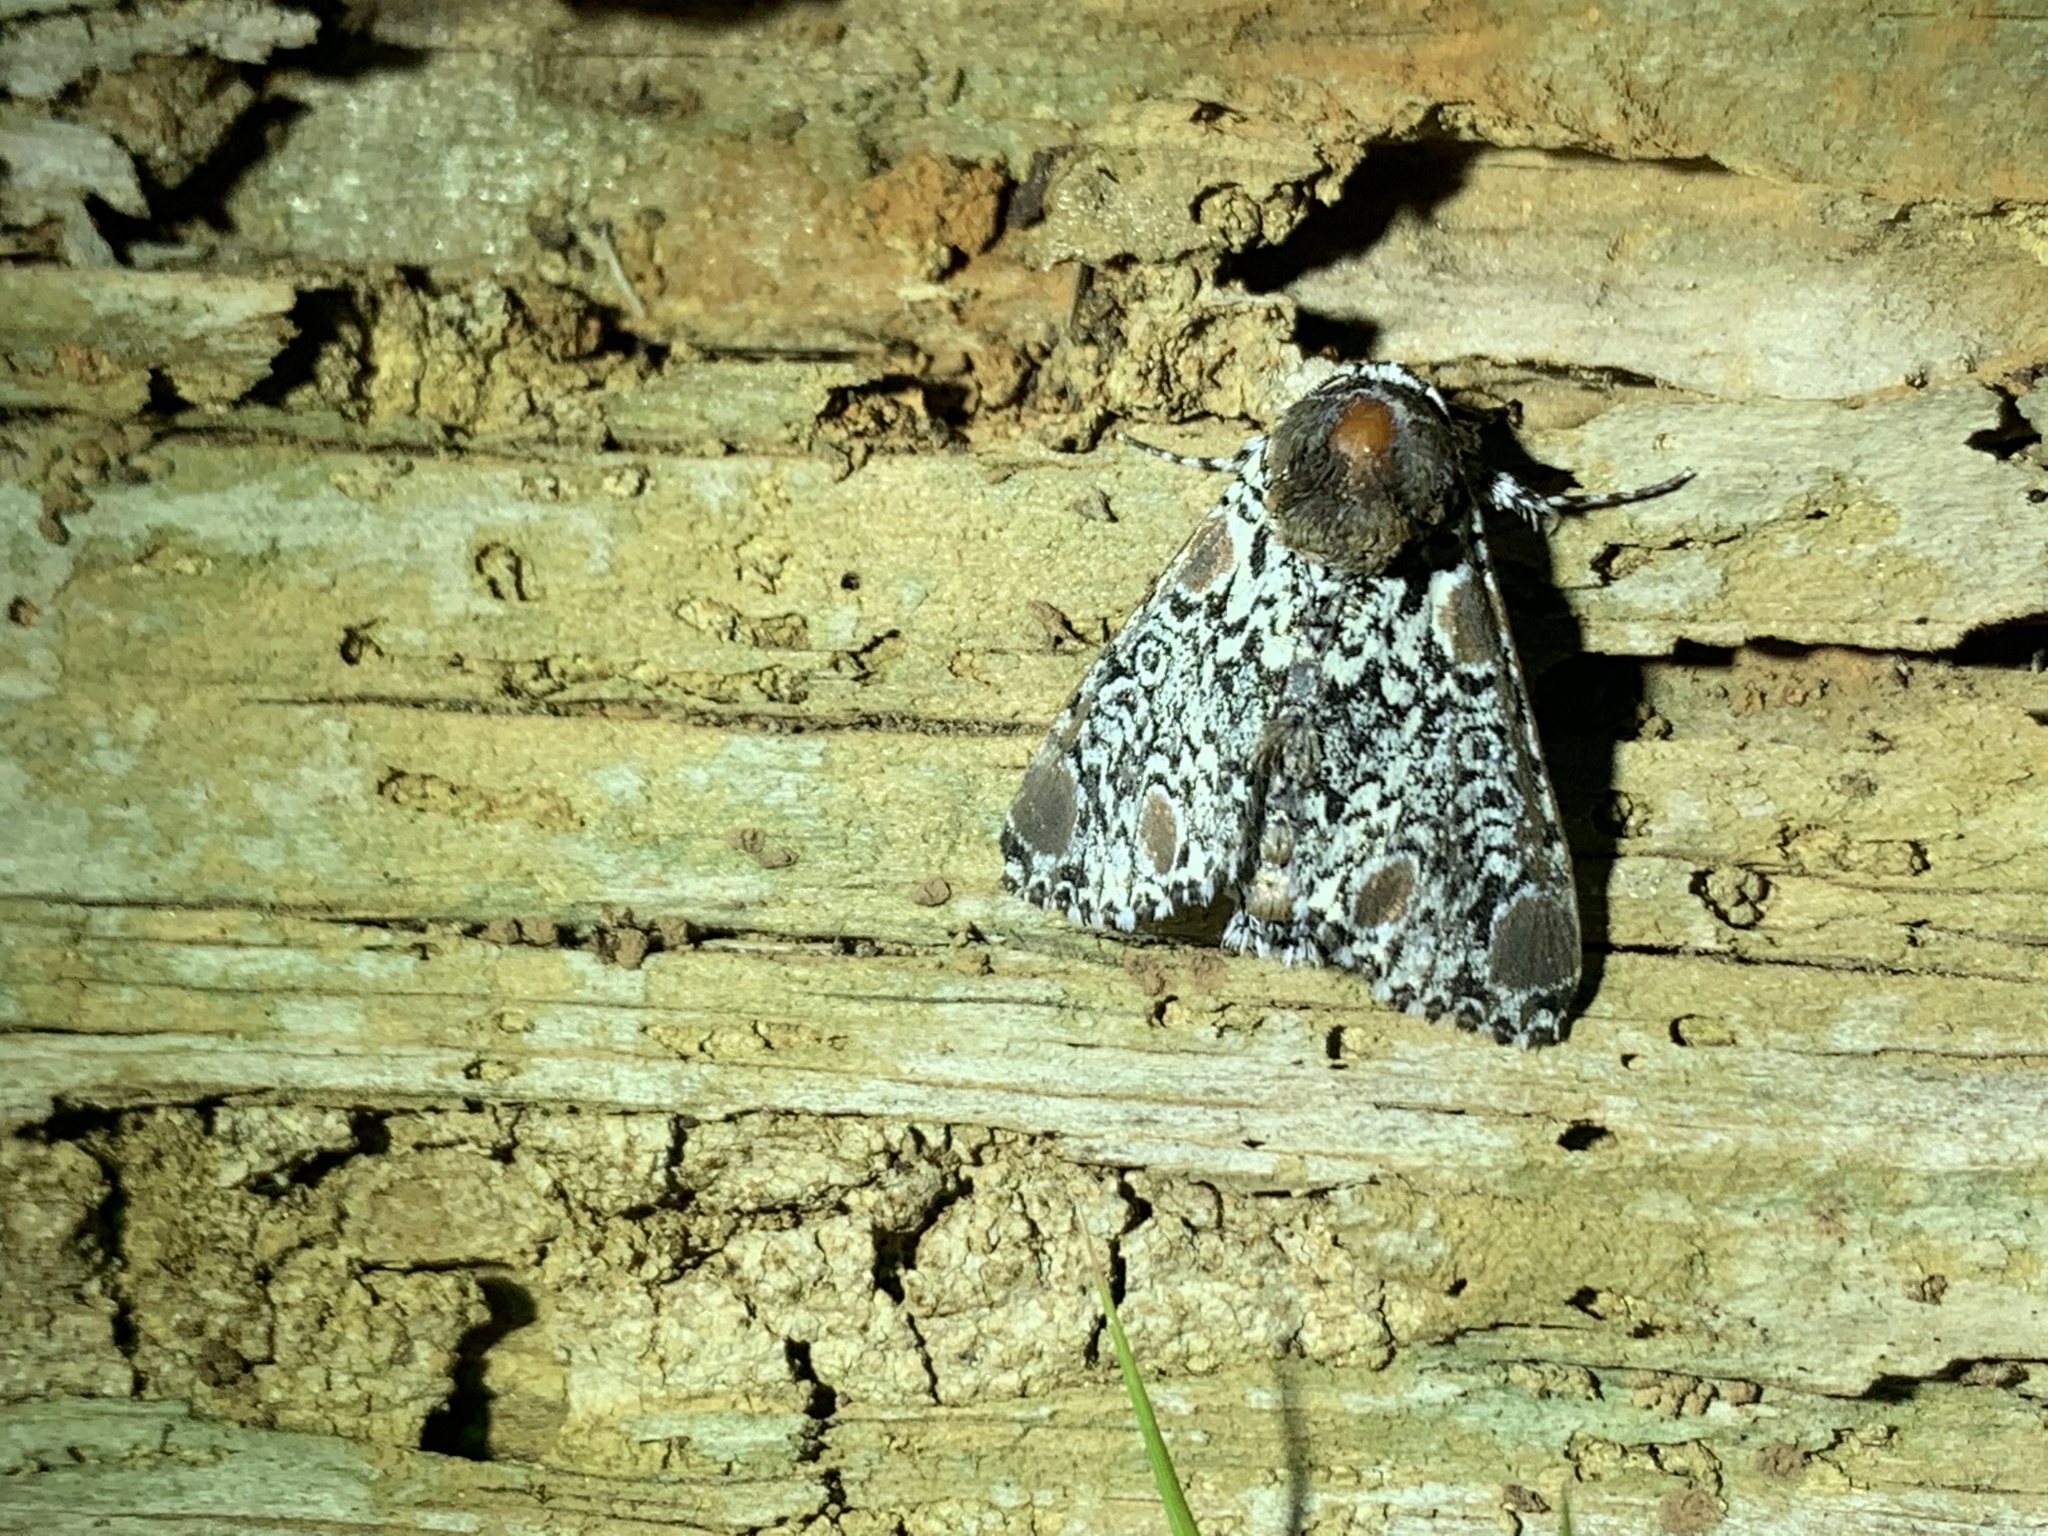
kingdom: Animalia
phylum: Arthropoda
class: Insecta
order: Lepidoptera
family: Noctuidae
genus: Harrisimemna
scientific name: Harrisimemna trisignata
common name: Harris threespot
